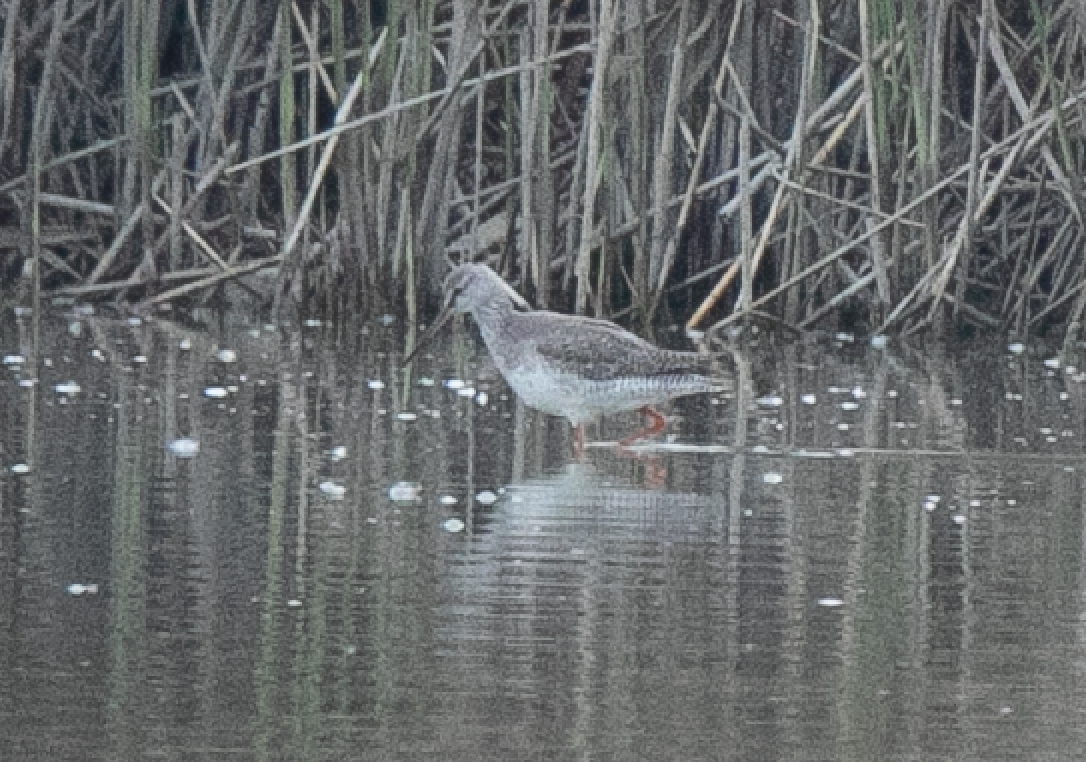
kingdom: Animalia
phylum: Chordata
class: Aves
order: Charadriiformes
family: Scolopacidae
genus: Tringa
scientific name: Tringa erythropus
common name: Spotted redshank
